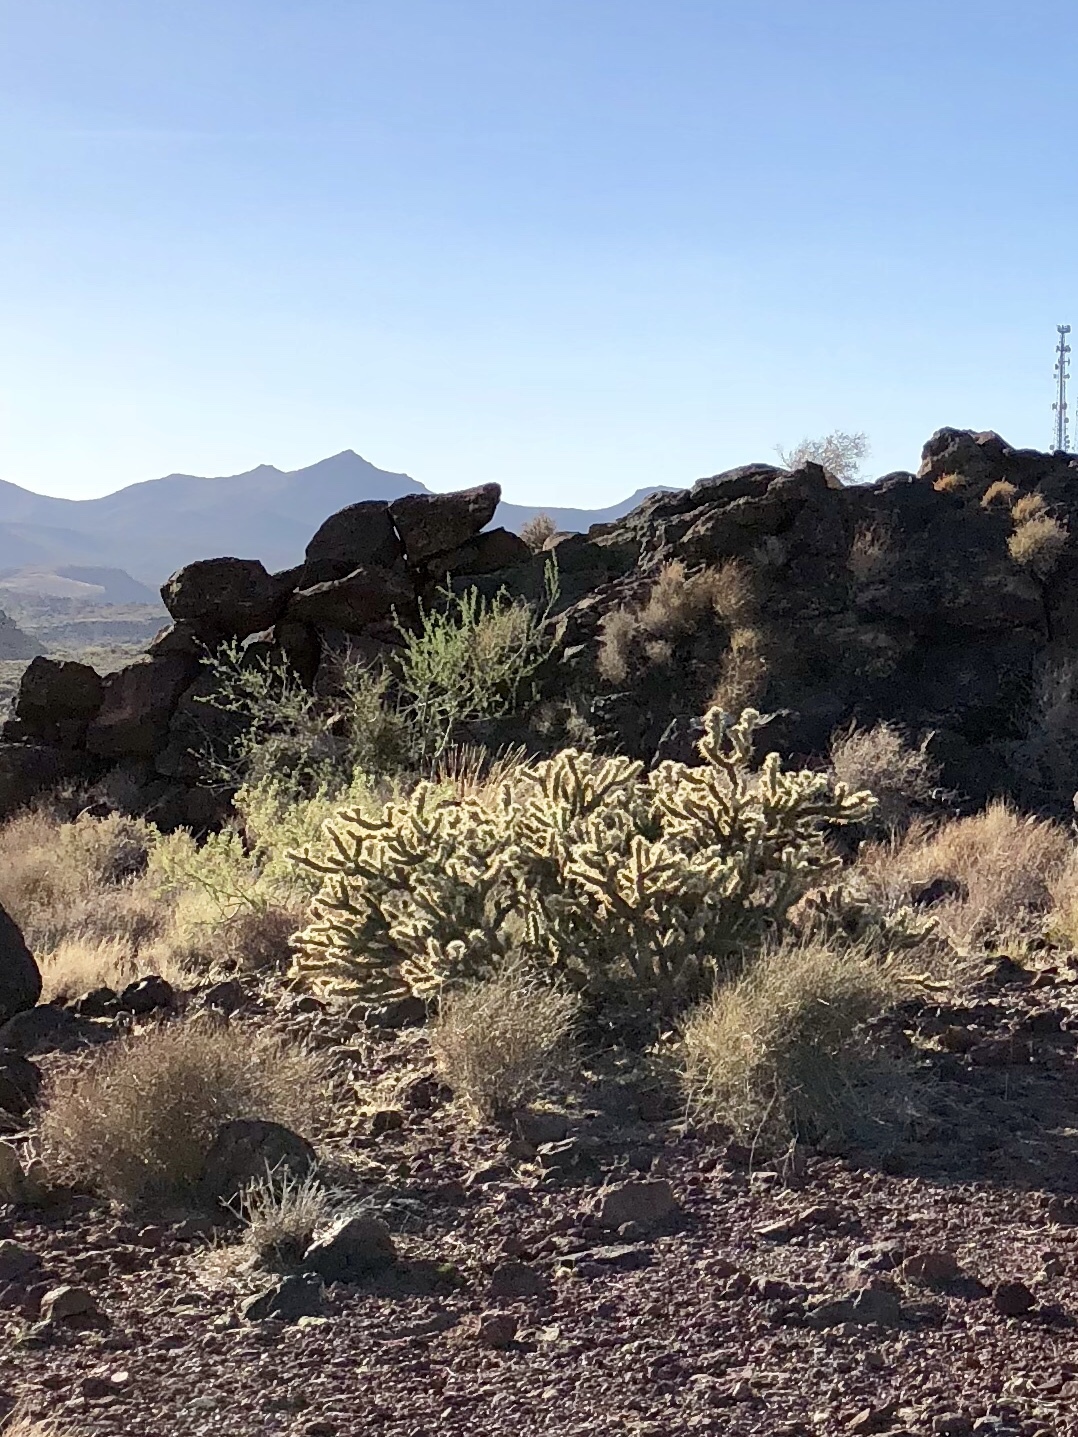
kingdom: Plantae
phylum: Tracheophyta
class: Magnoliopsida
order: Caryophyllales
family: Cactaceae
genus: Cylindropuntia
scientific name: Cylindropuntia acanthocarpa
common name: Buckhorn cholla
